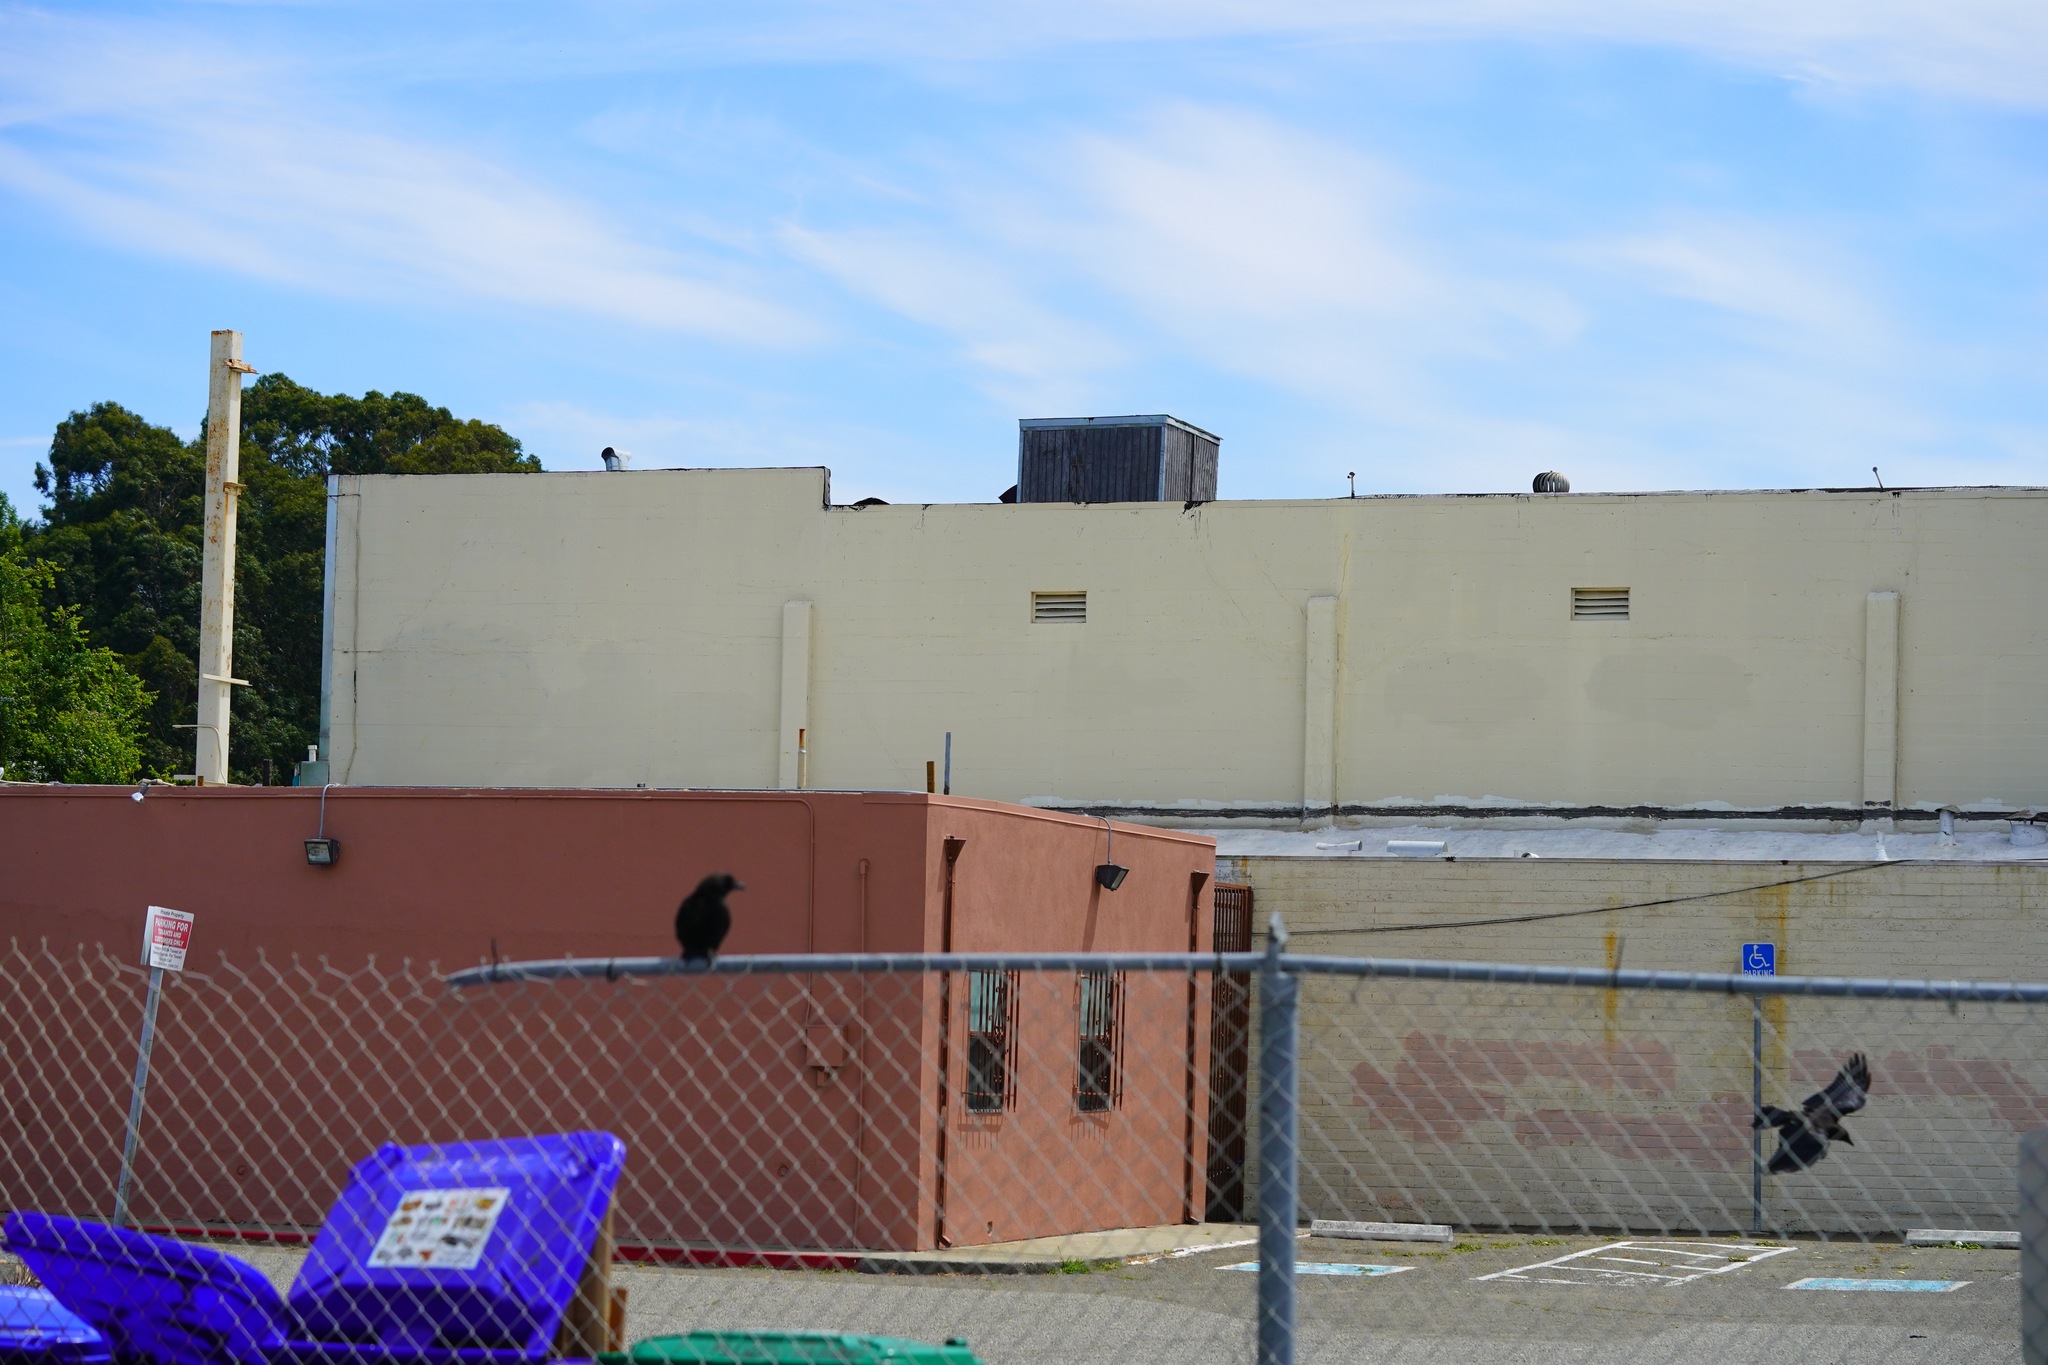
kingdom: Animalia
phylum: Chordata
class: Aves
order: Passeriformes
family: Corvidae
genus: Corvus
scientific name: Corvus brachyrhynchos
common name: American crow
